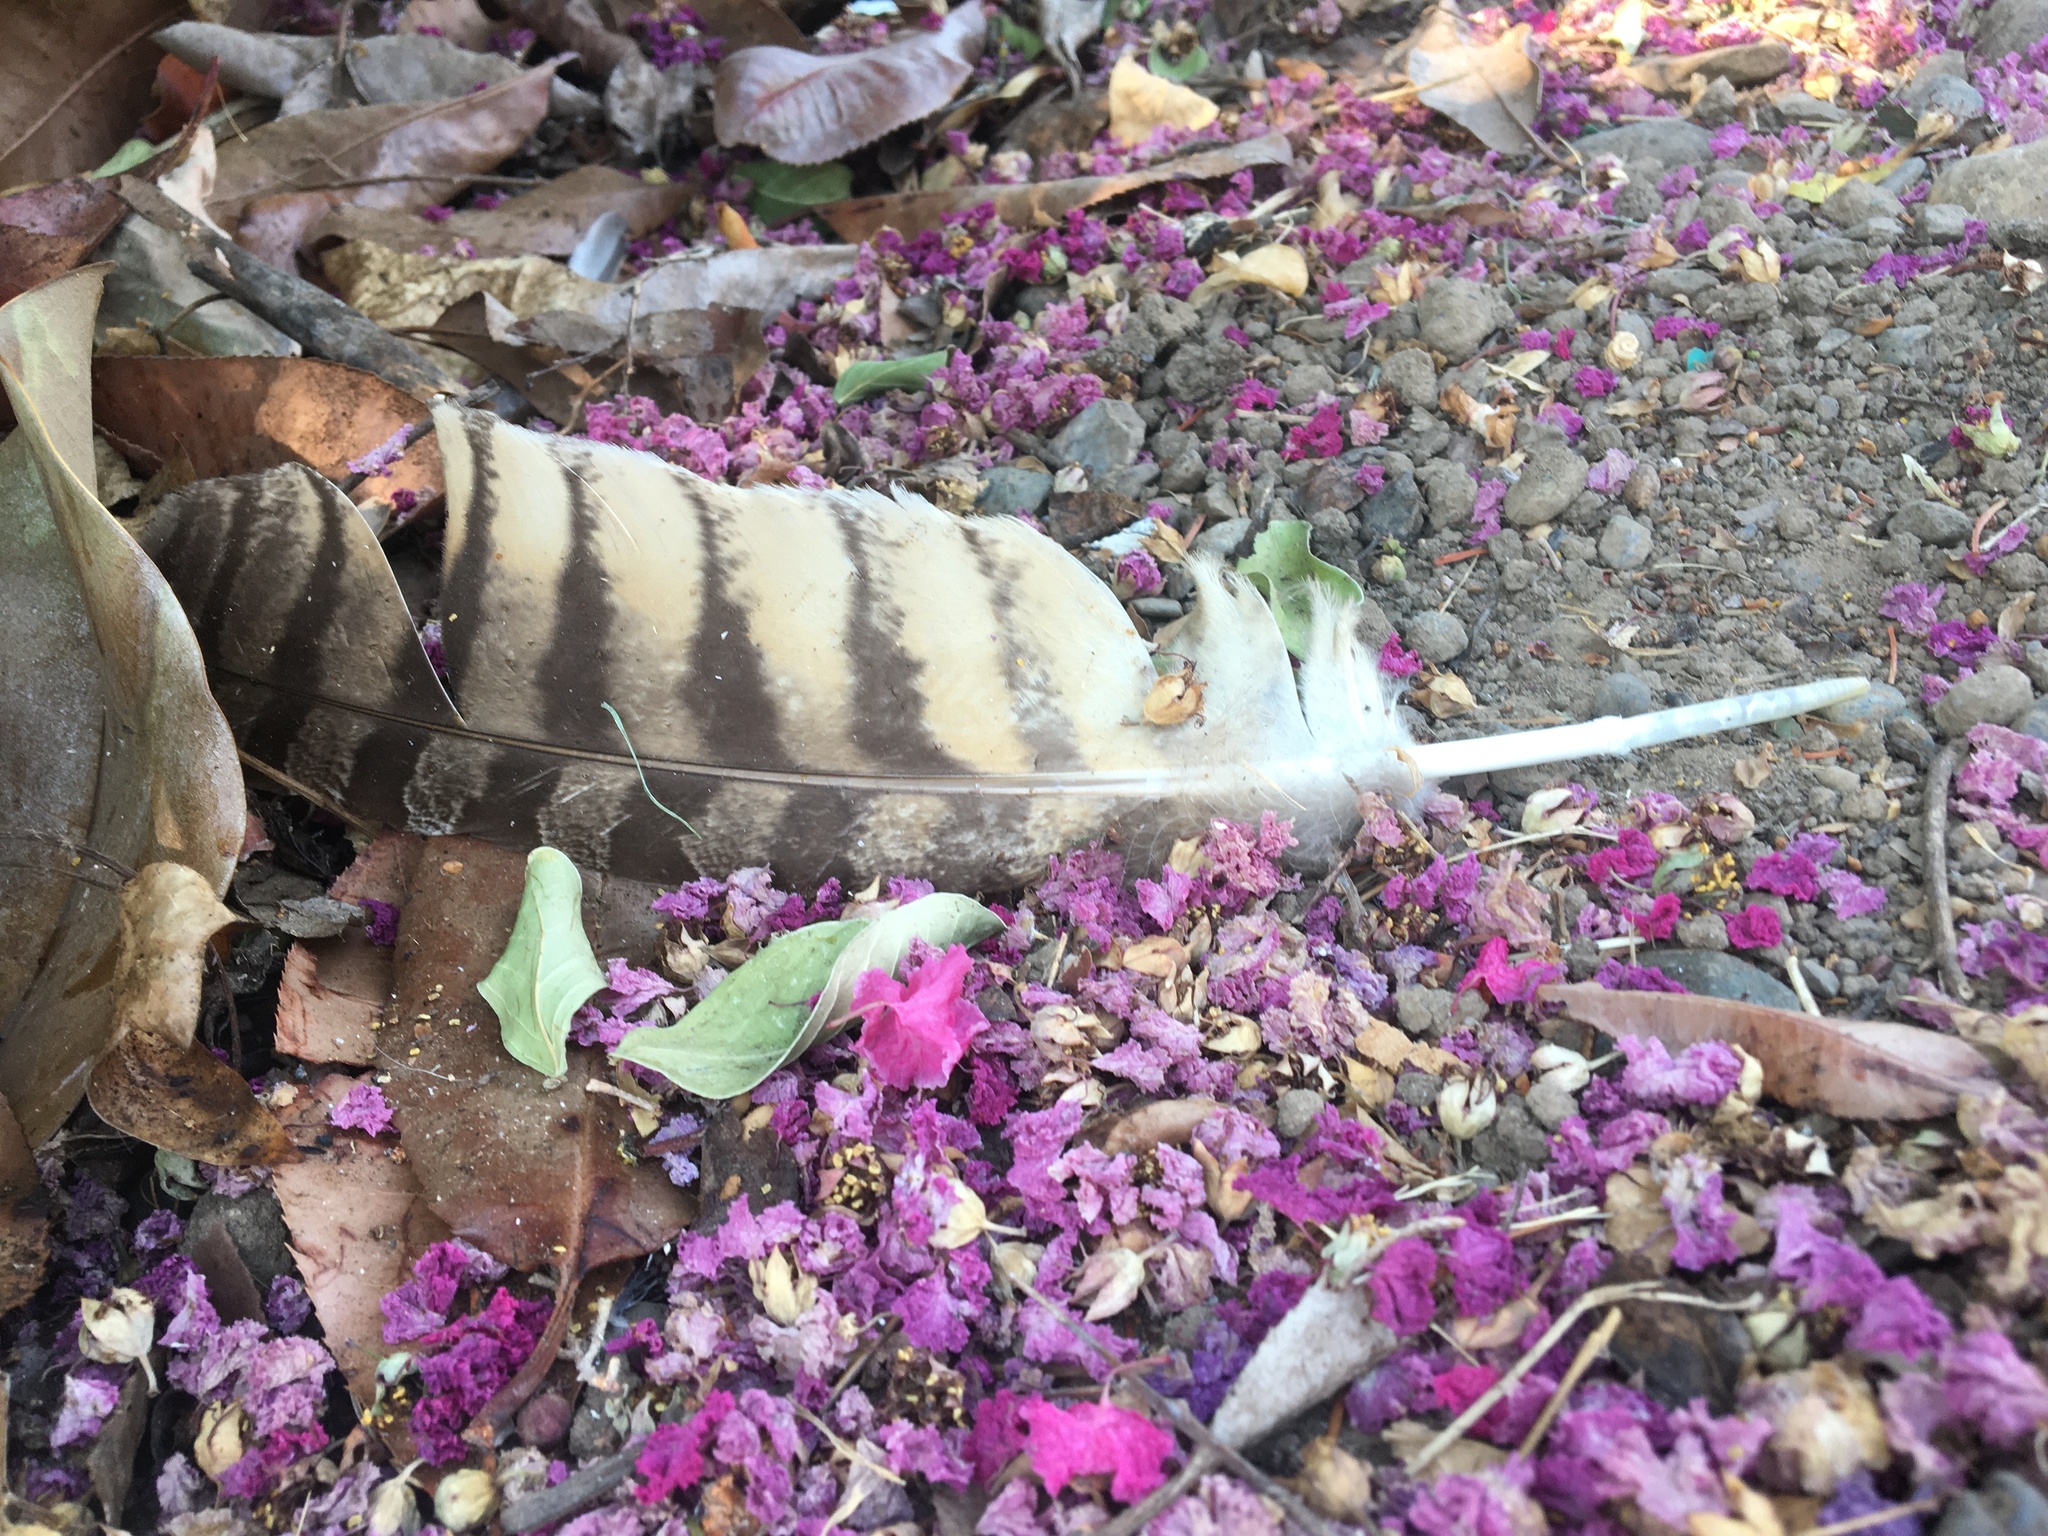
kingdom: Animalia
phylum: Chordata
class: Aves
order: Strigiformes
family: Strigidae
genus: Bubo
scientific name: Bubo virginianus
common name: Great horned owl
